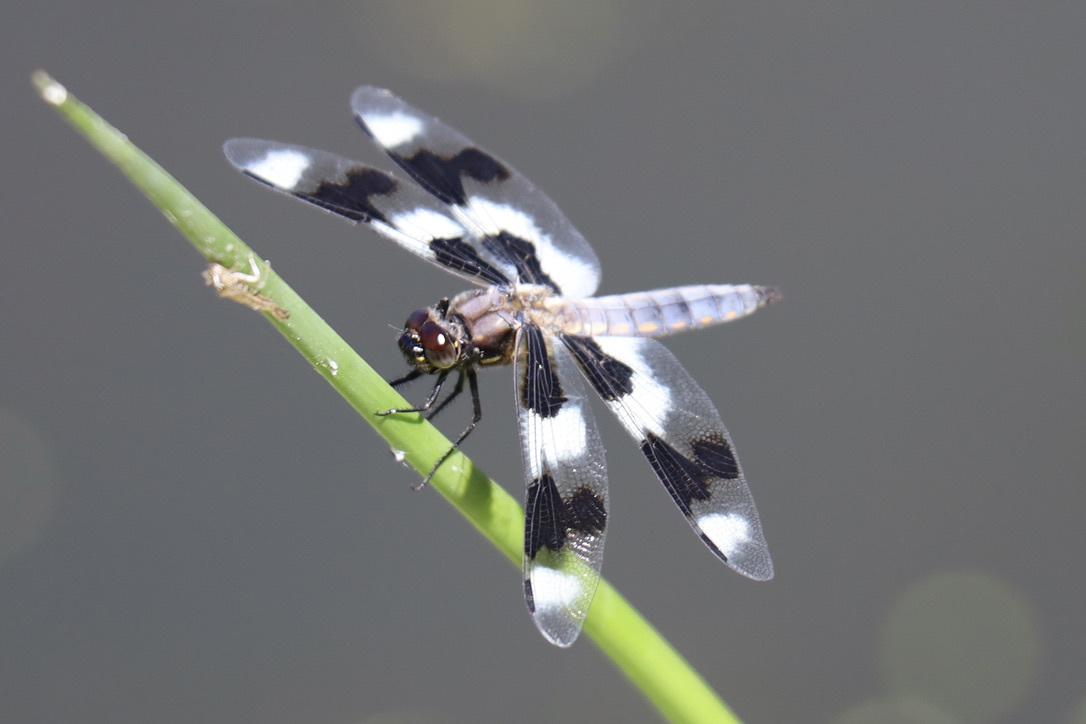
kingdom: Animalia
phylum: Arthropoda
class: Insecta
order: Odonata
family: Libellulidae
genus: Libellula
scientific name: Libellula forensis
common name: Eight-spotted skimmer
